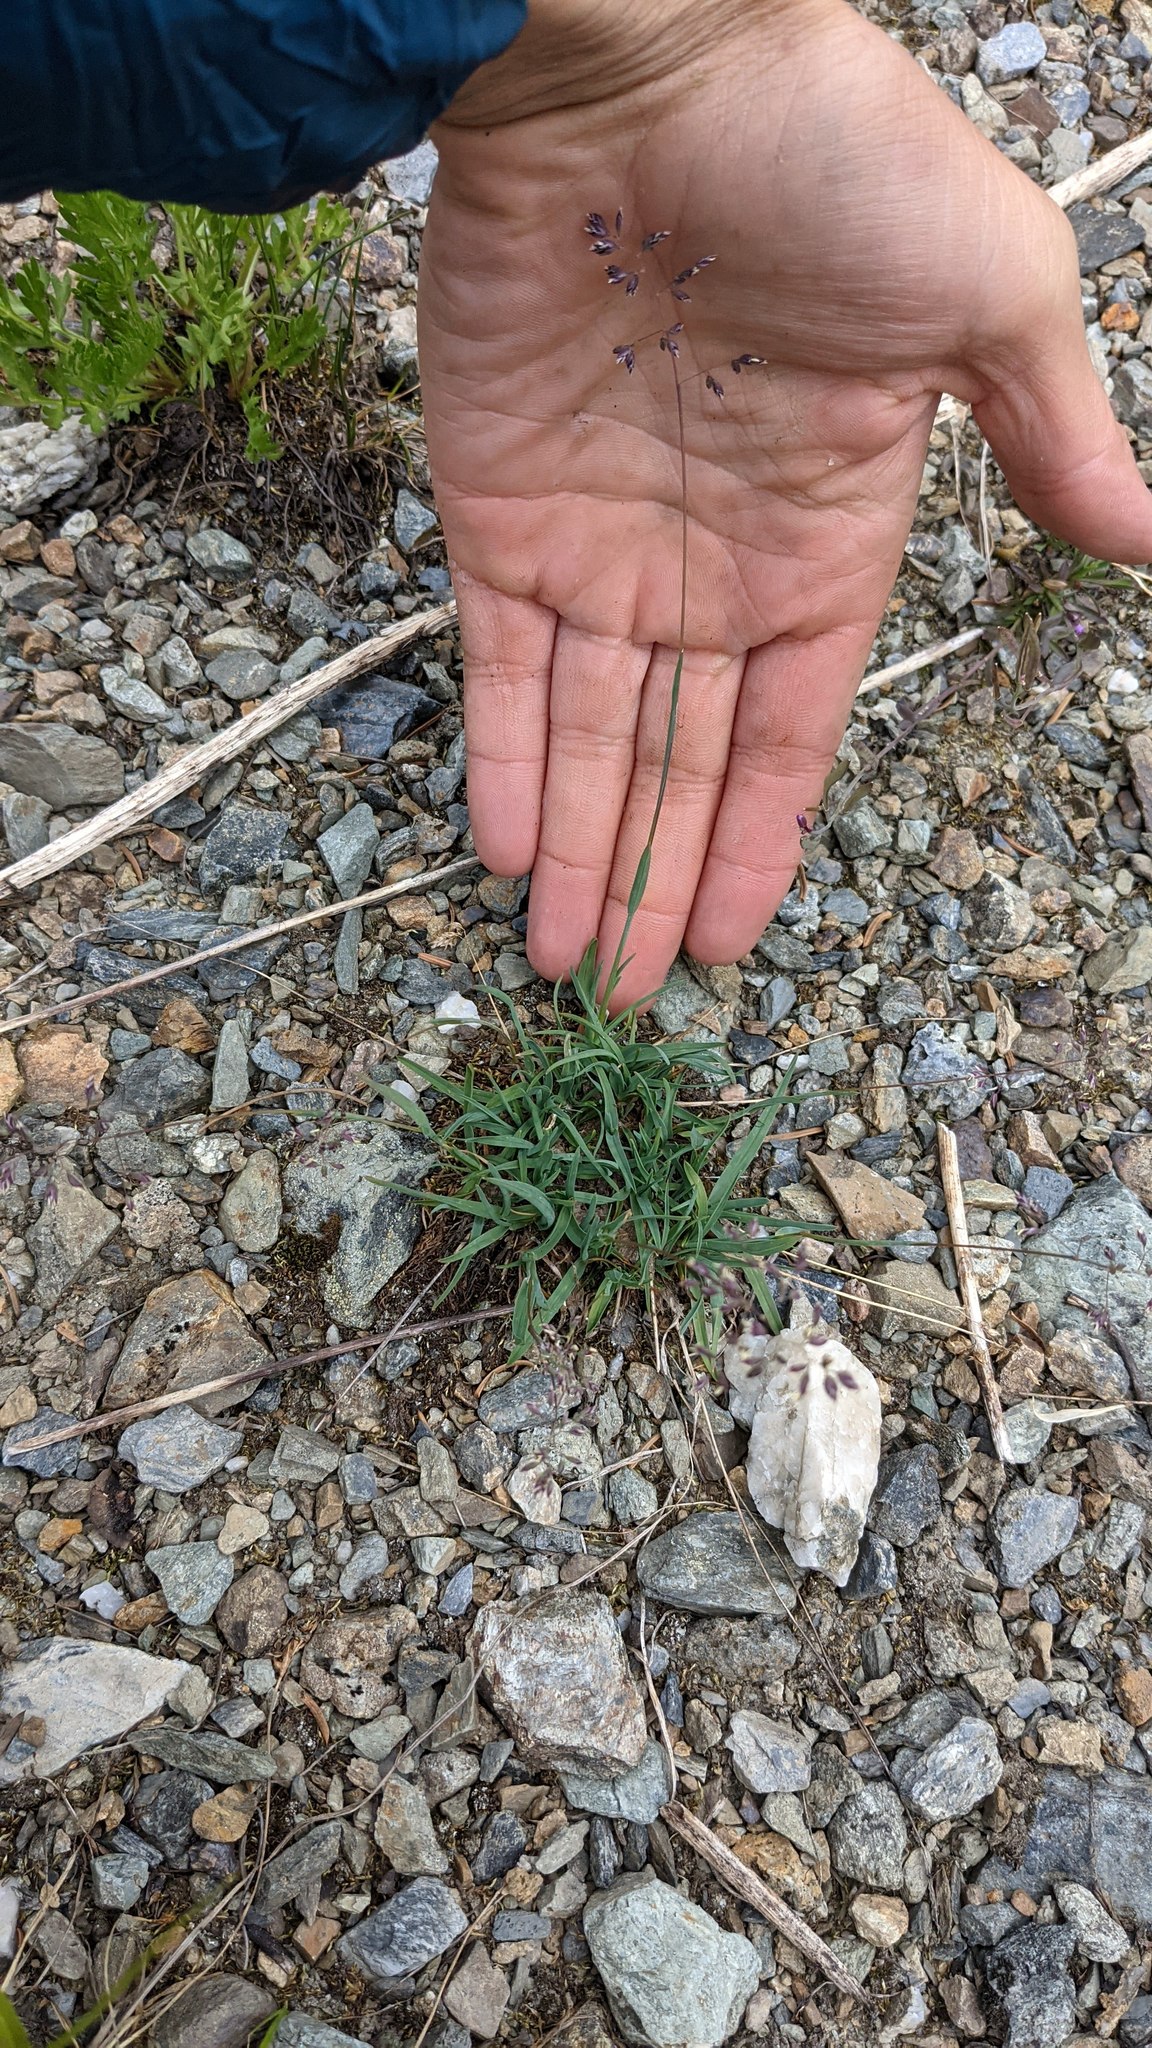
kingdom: Plantae
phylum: Tracheophyta
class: Liliopsida
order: Poales
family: Poaceae
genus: Poa
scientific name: Poa alpina
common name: Alpine bluegrass
